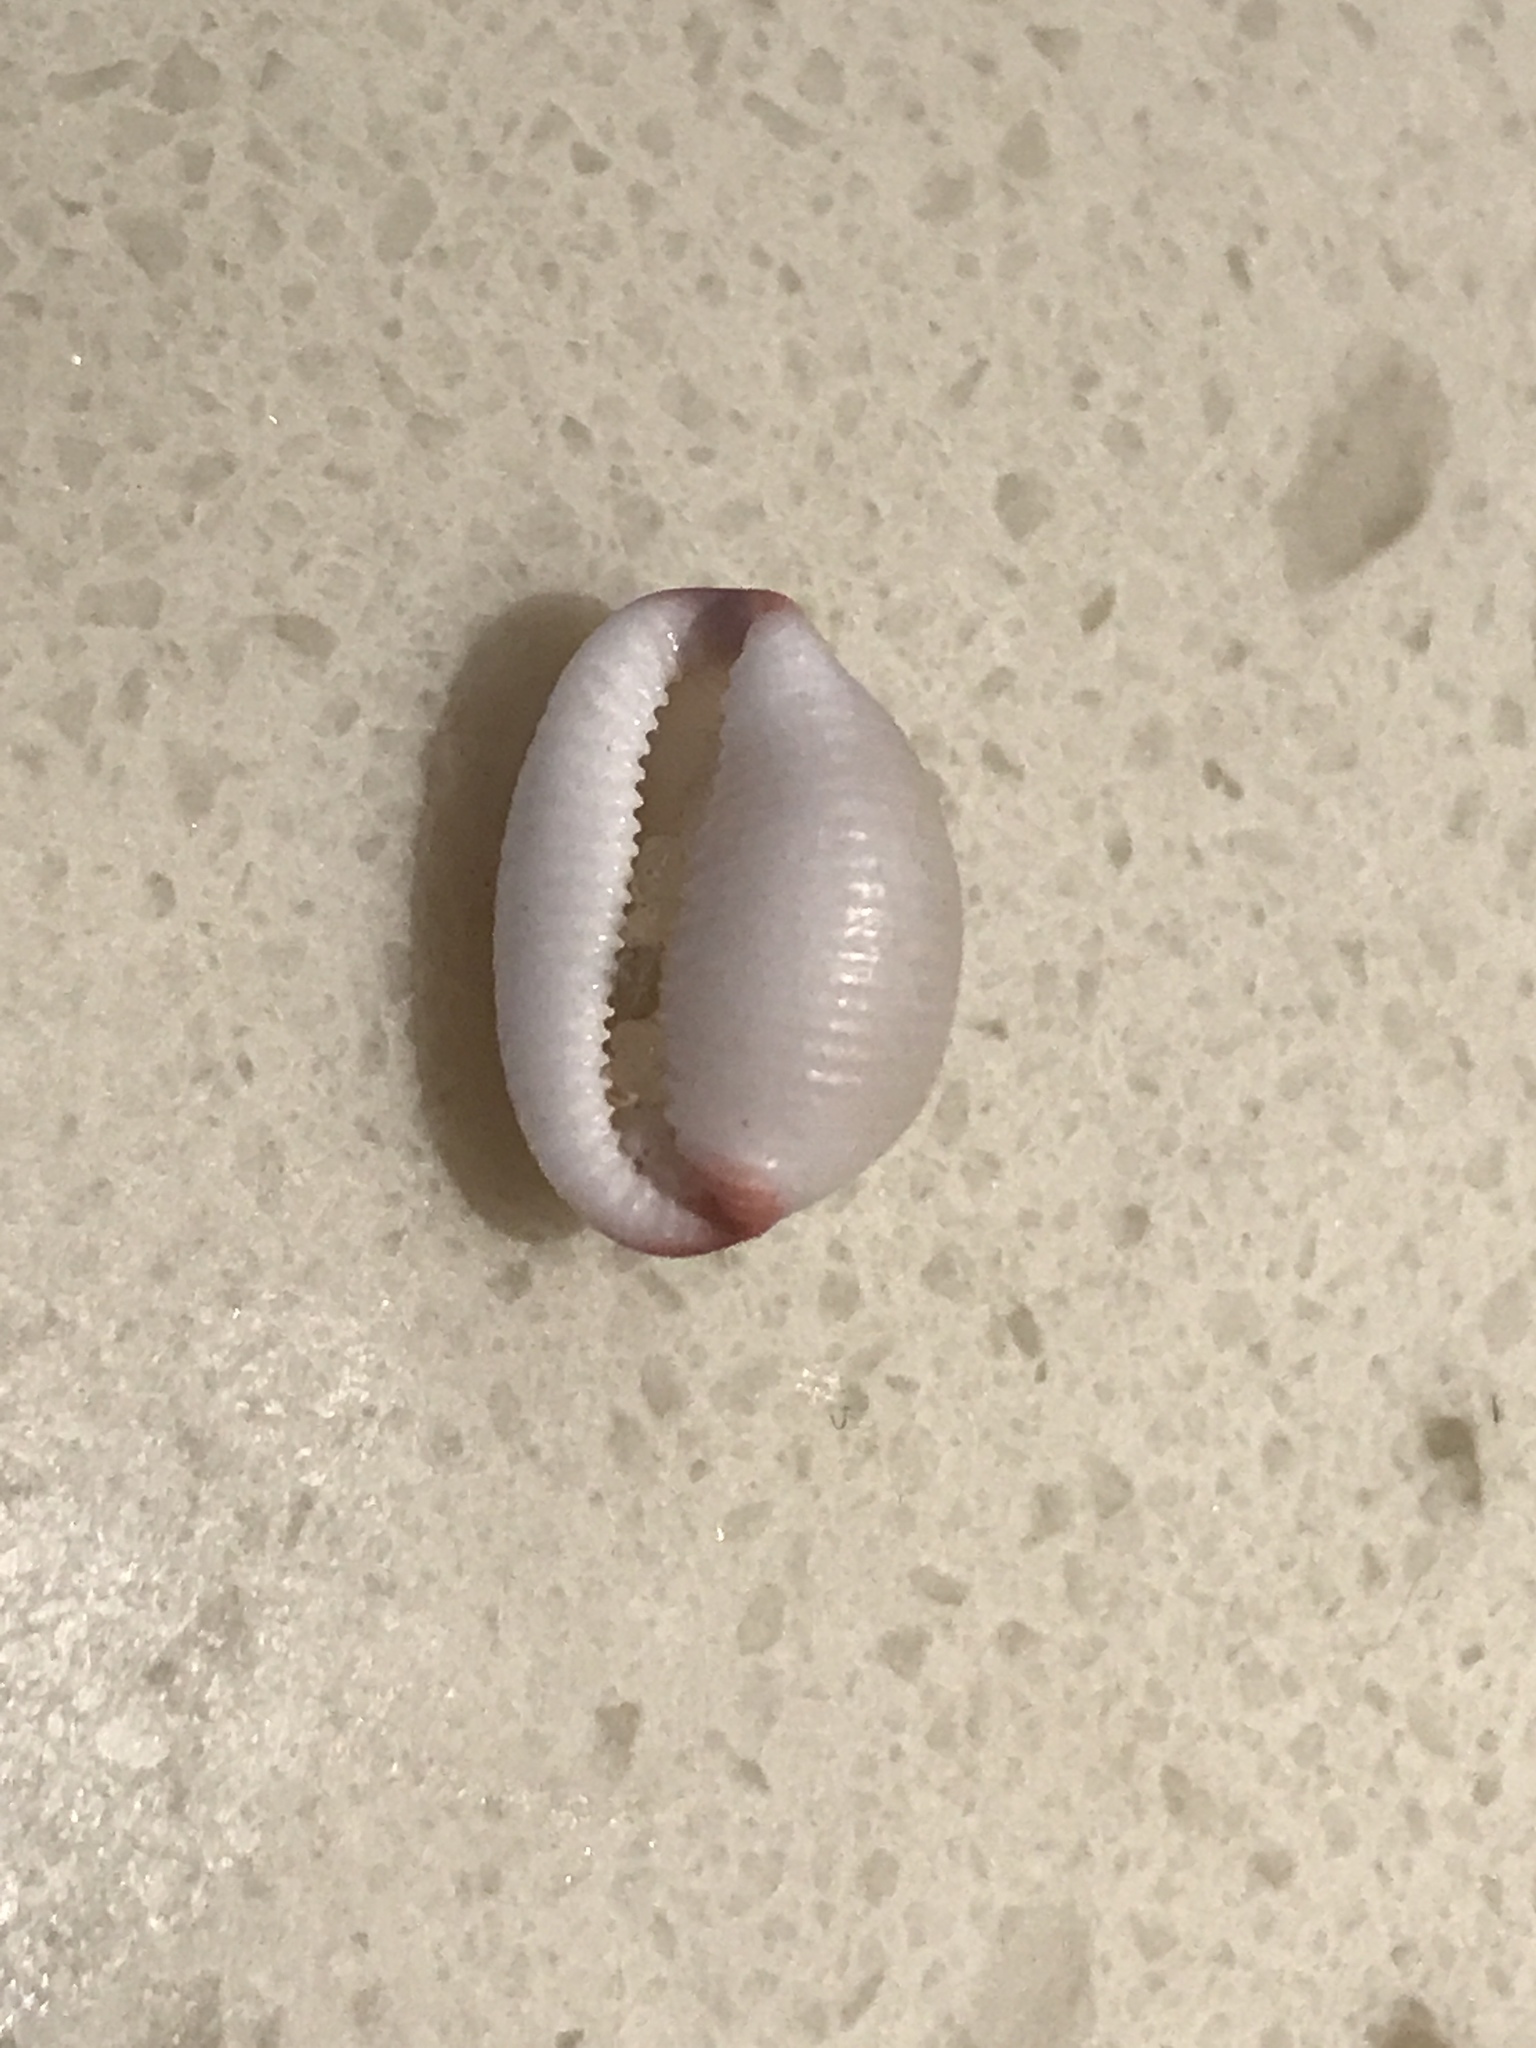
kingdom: Animalia
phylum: Mollusca
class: Gastropoda
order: Littorinimorpha
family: Triviidae
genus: Ellatrivia
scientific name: Ellatrivia merces
